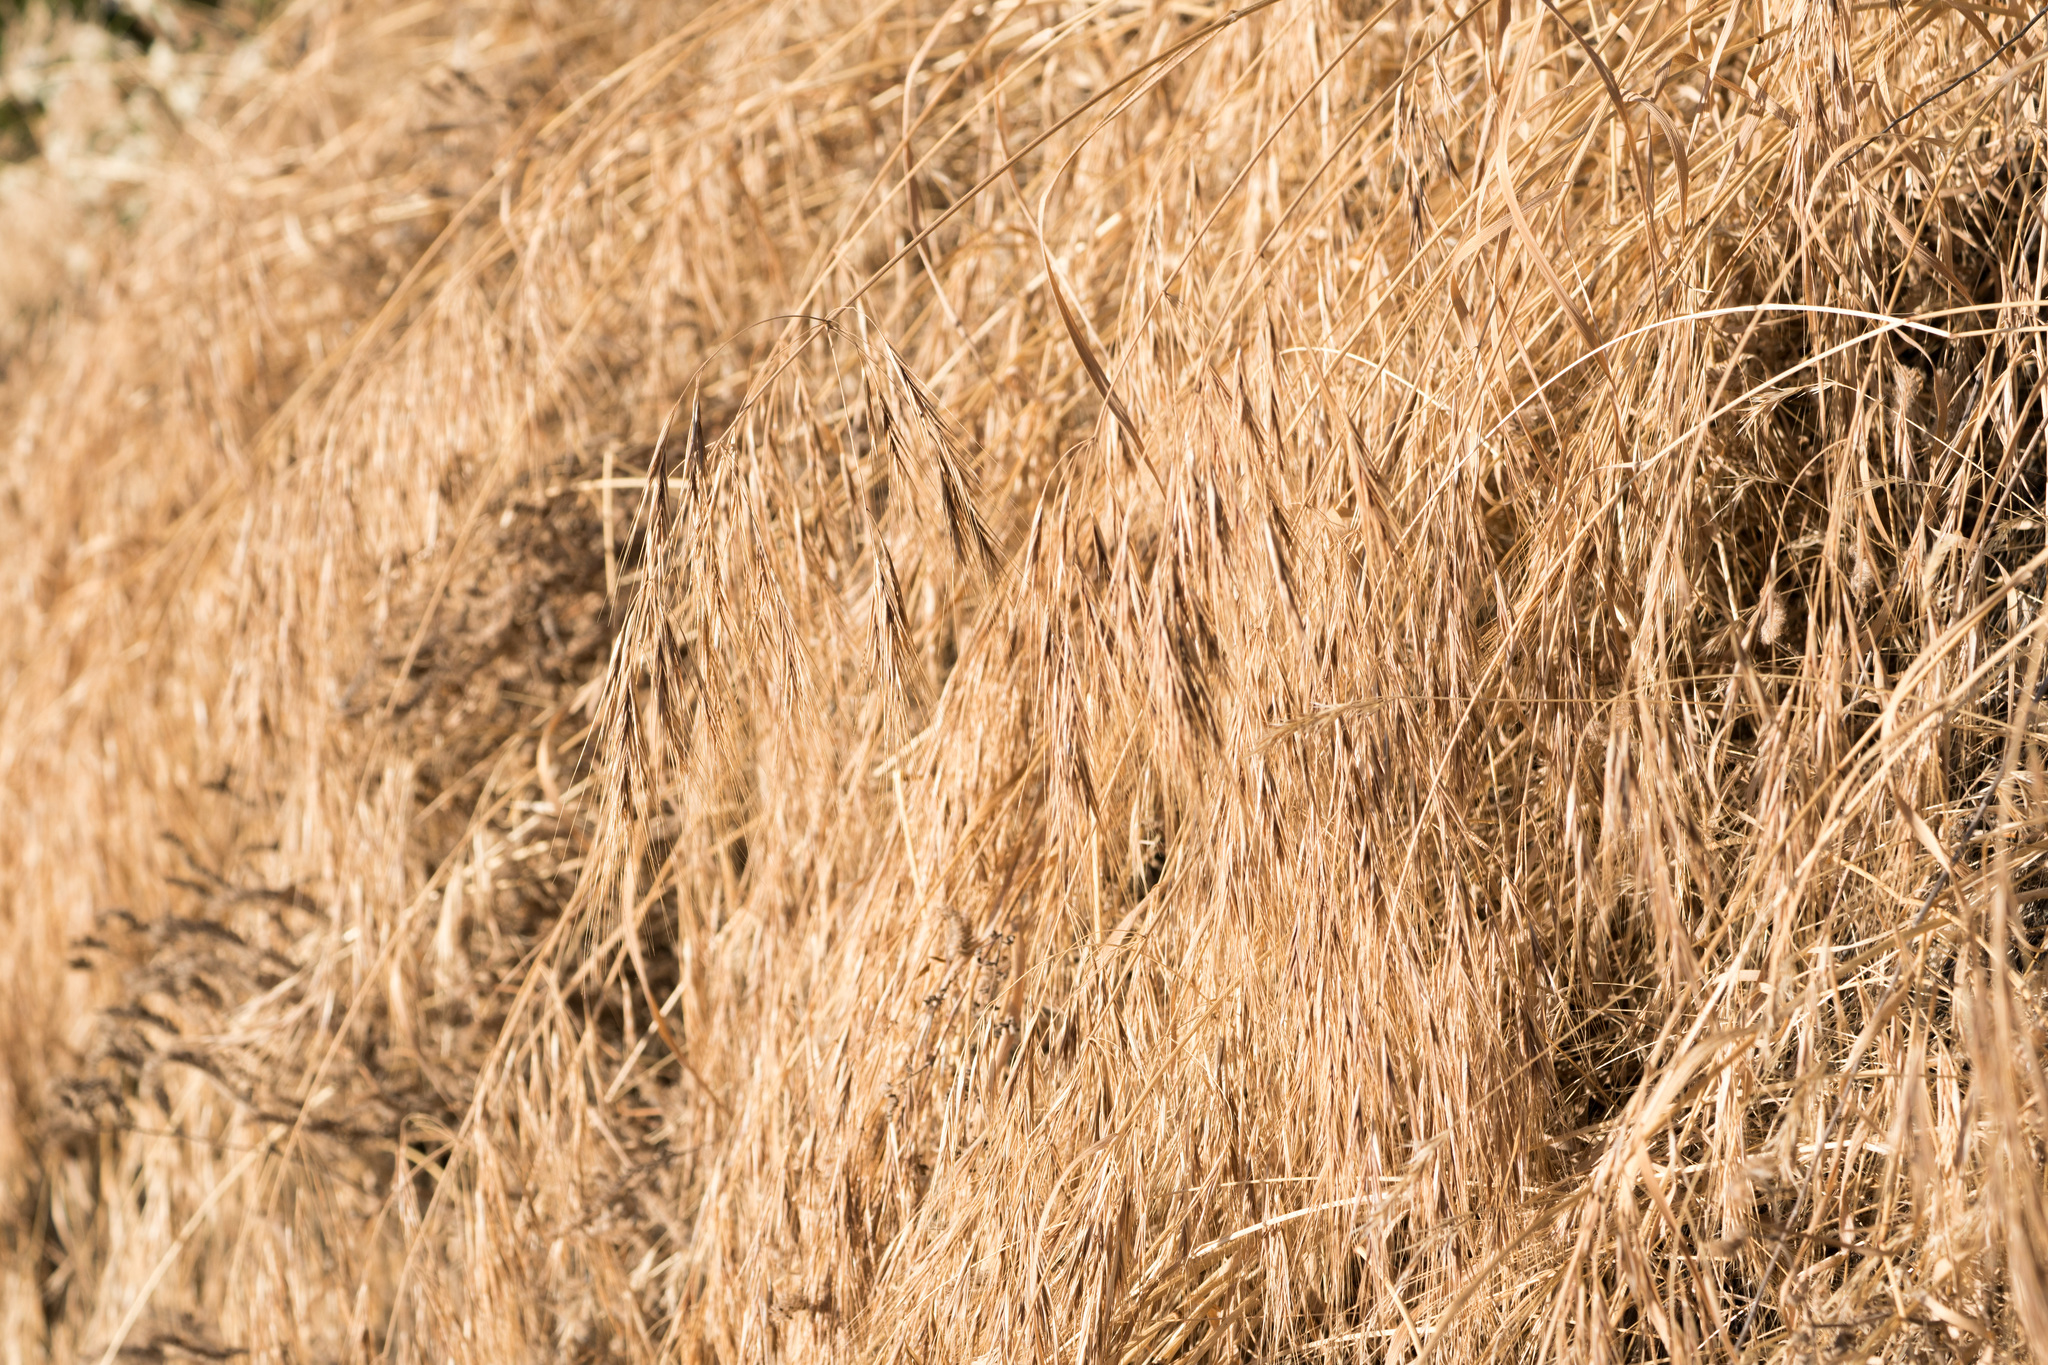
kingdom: Plantae
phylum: Tracheophyta
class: Liliopsida
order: Poales
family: Poaceae
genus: Bromus
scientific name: Bromus diandrus
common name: Ripgut brome
